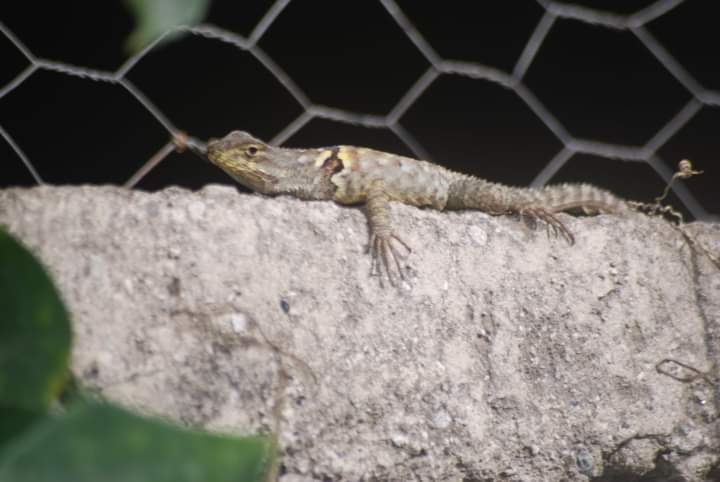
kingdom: Animalia
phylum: Chordata
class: Squamata
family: Phrynosomatidae
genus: Sceloporus
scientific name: Sceloporus torquatus
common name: Central plateau torquate lizard [melanogaster]
